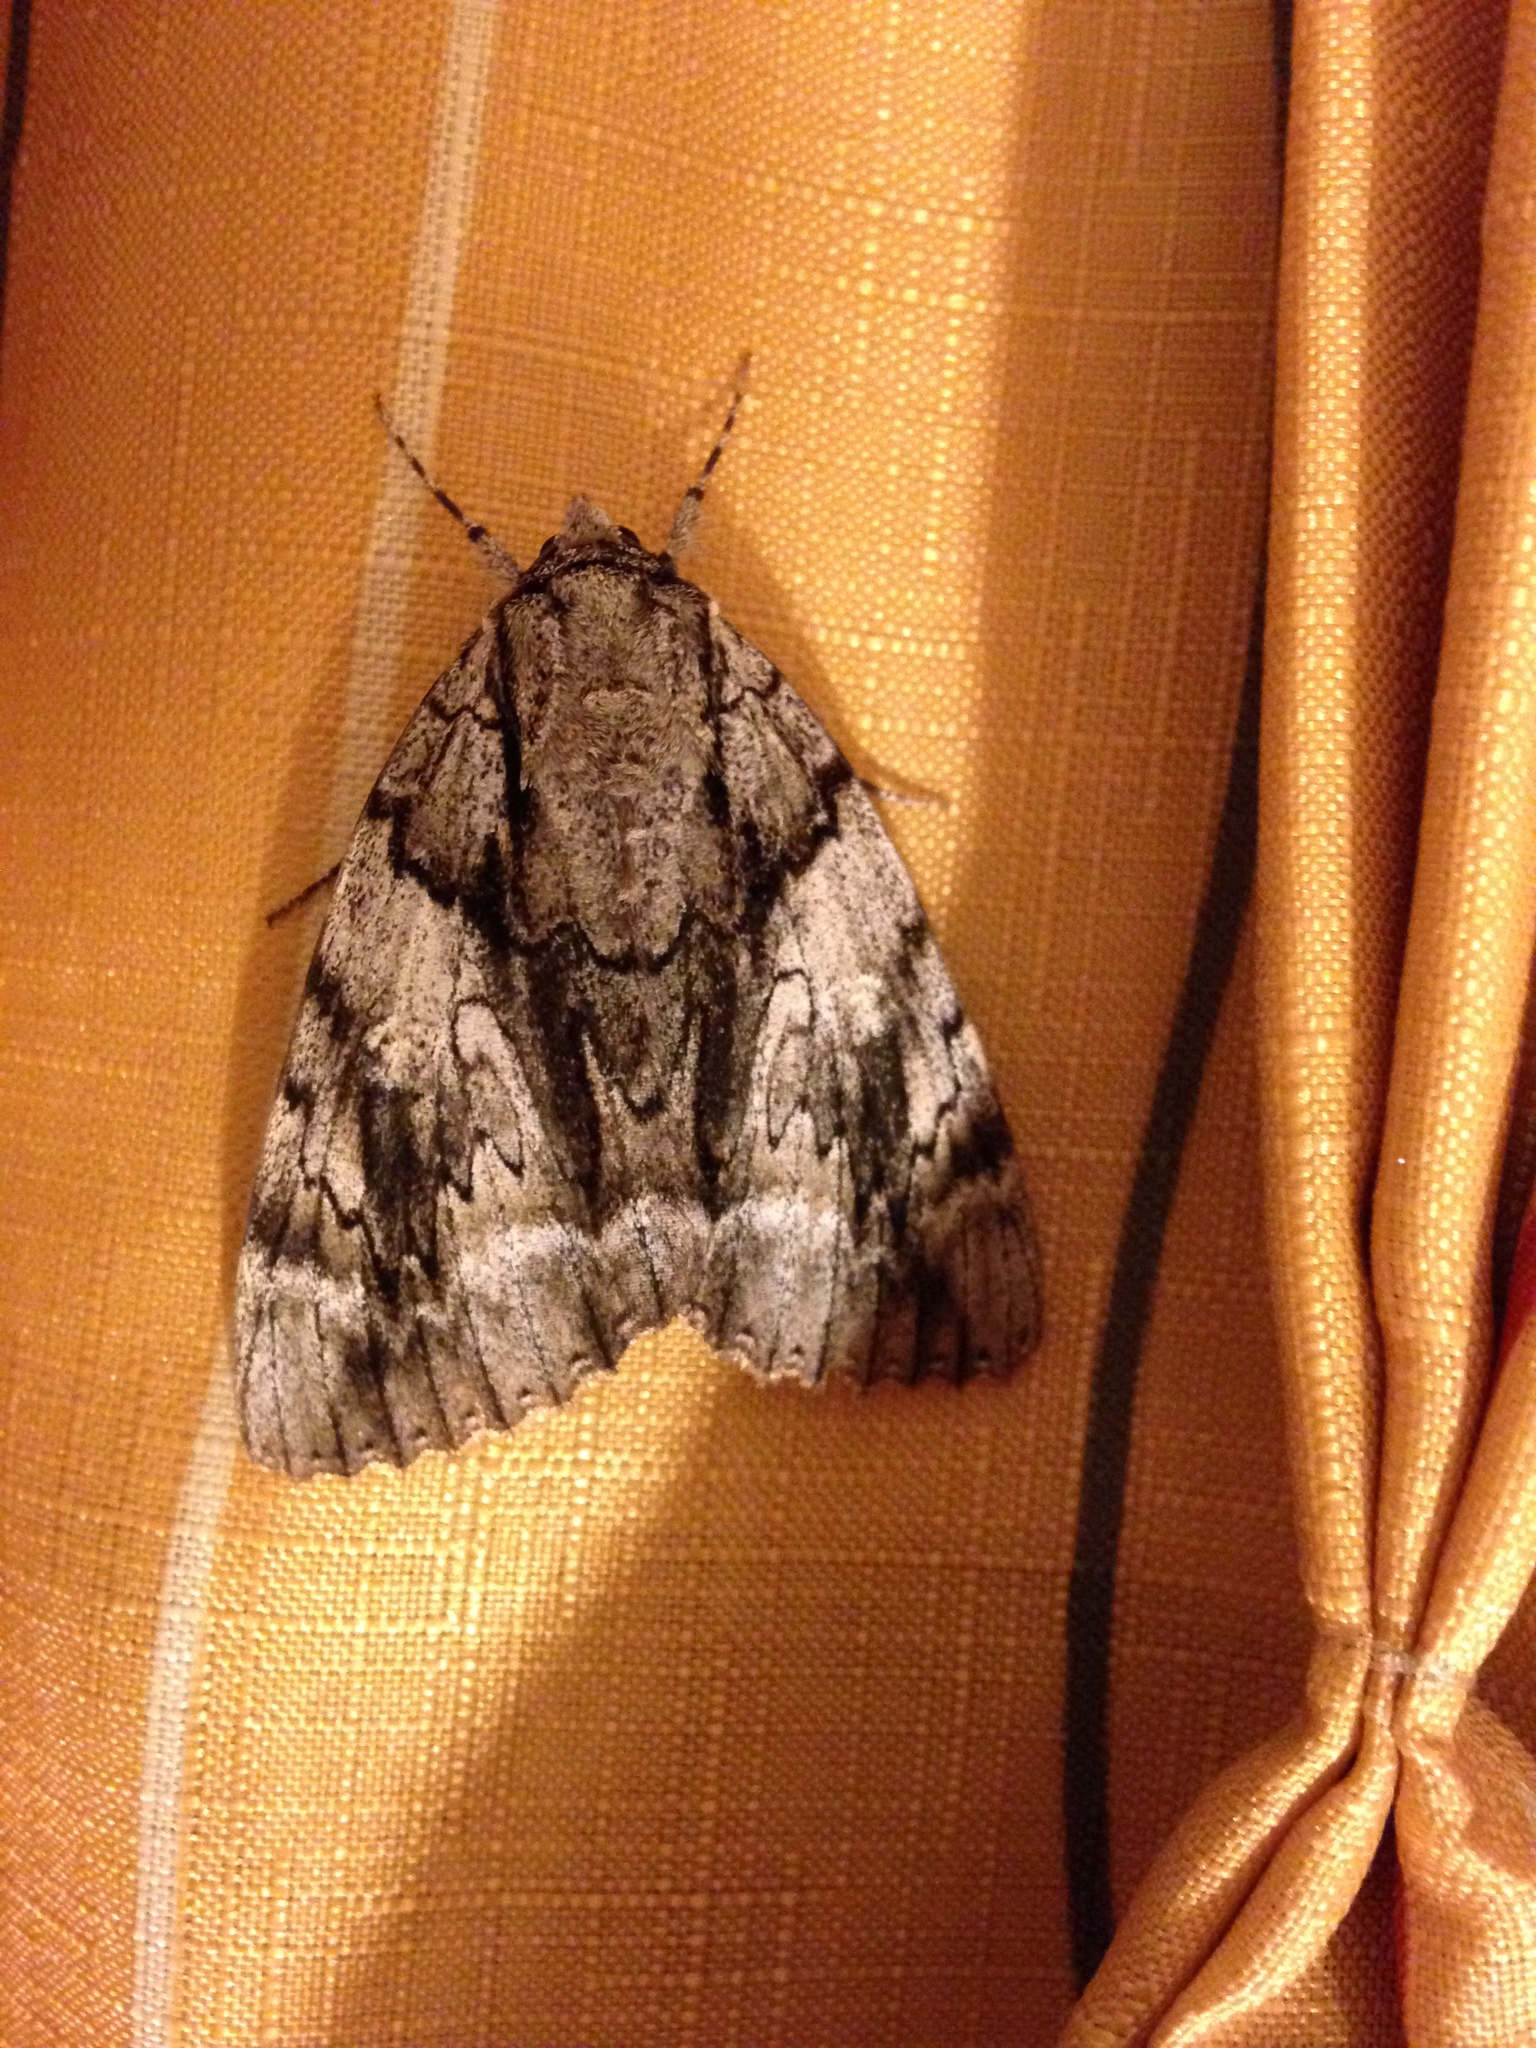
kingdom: Animalia
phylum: Arthropoda
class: Insecta
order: Lepidoptera
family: Erebidae
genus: Catocala
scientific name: Catocala vidua
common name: The widow
